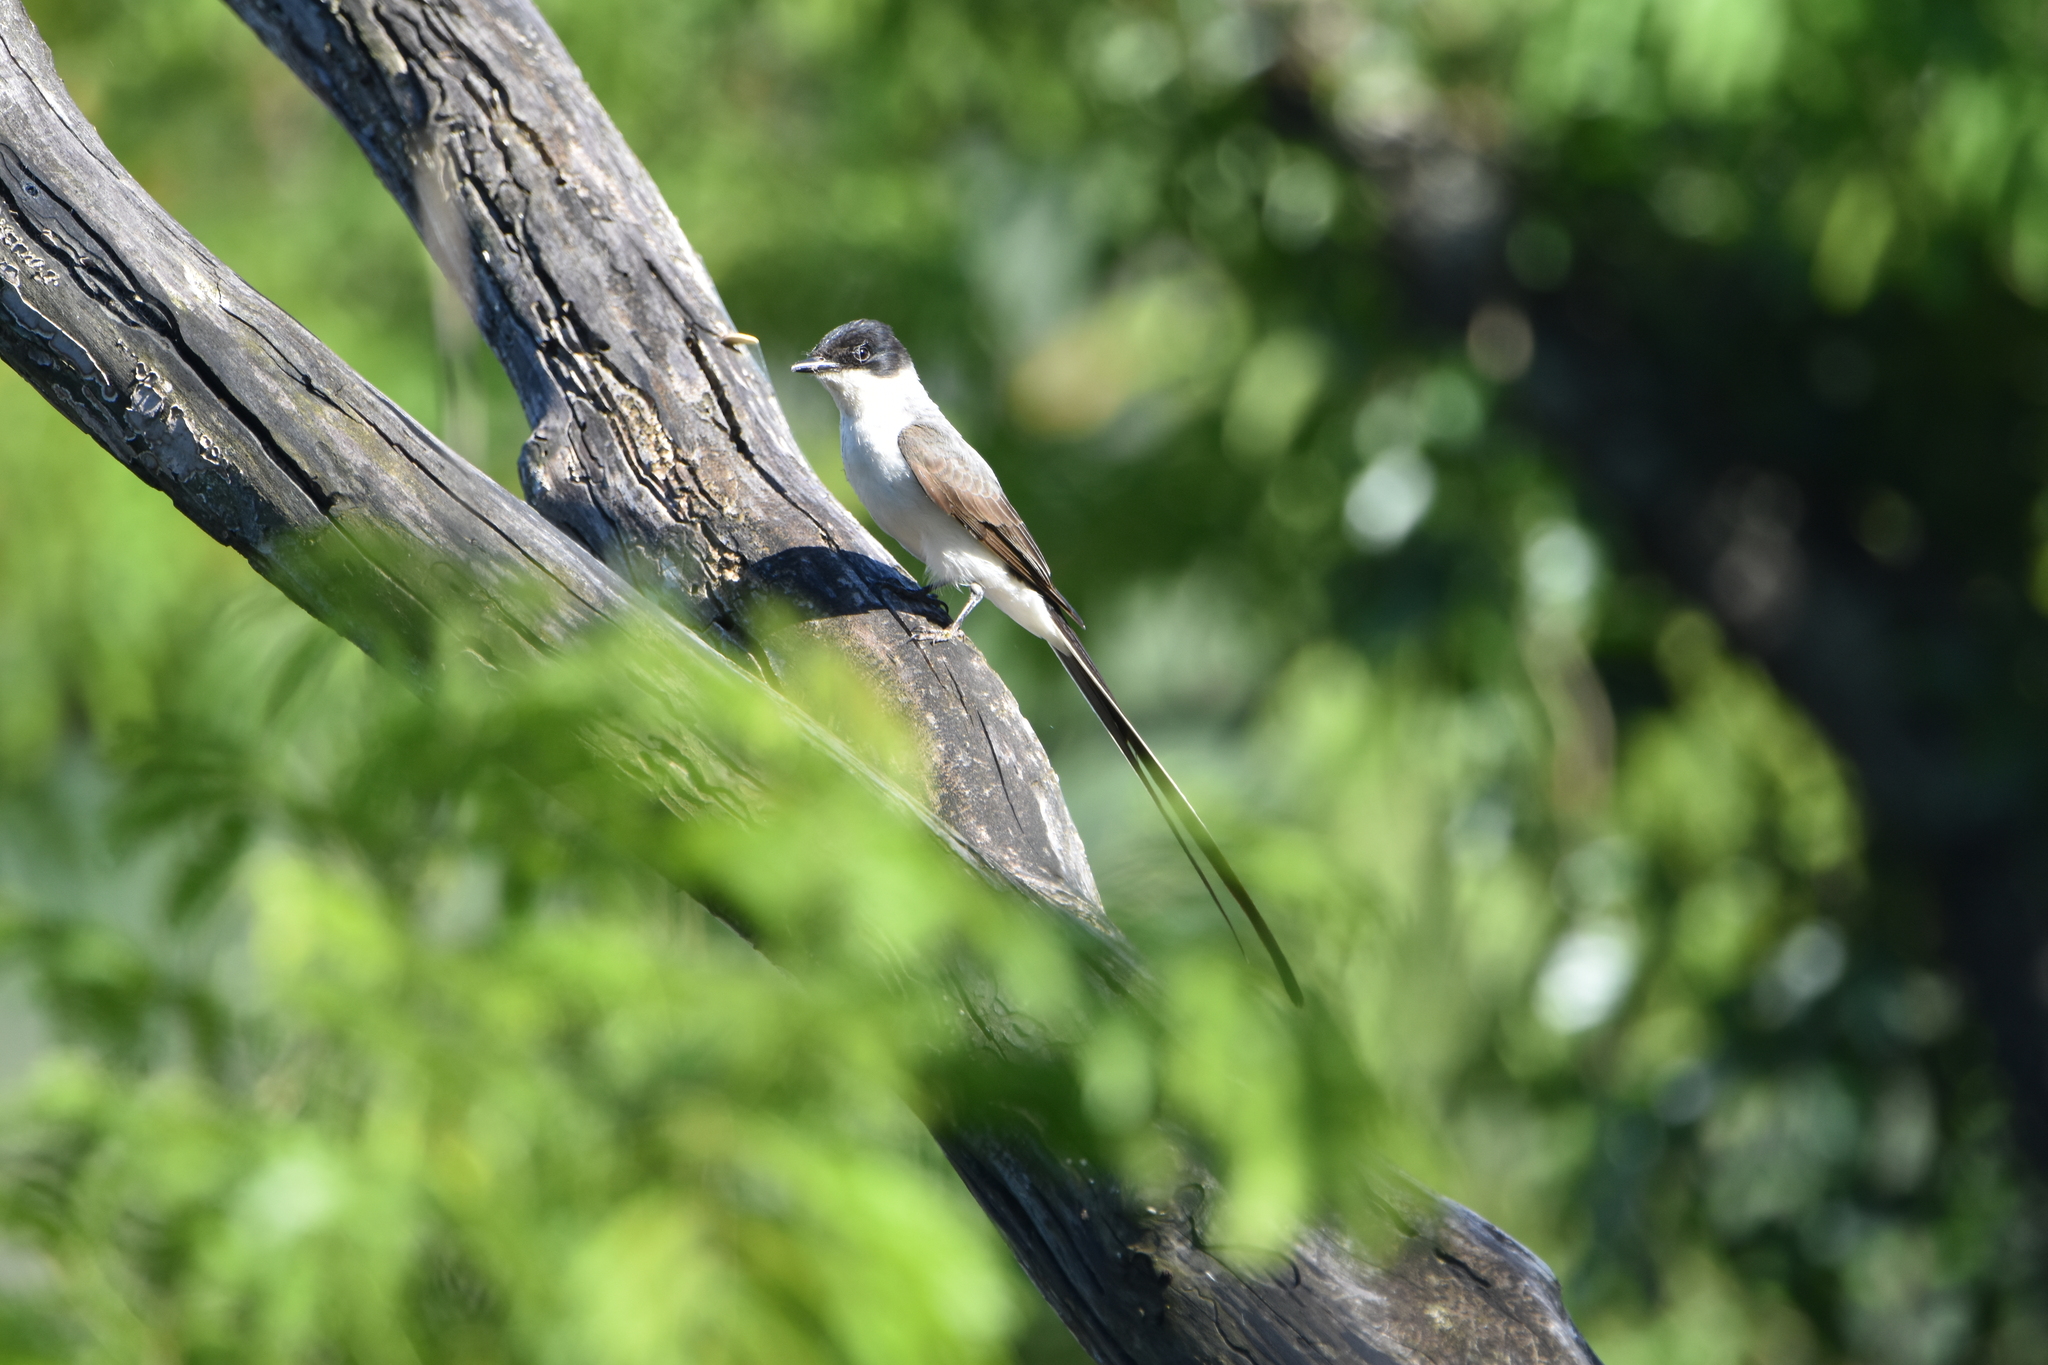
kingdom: Animalia
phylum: Chordata
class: Aves
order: Passeriformes
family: Tyrannidae
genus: Tyrannus
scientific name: Tyrannus savana
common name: Fork-tailed flycatcher
